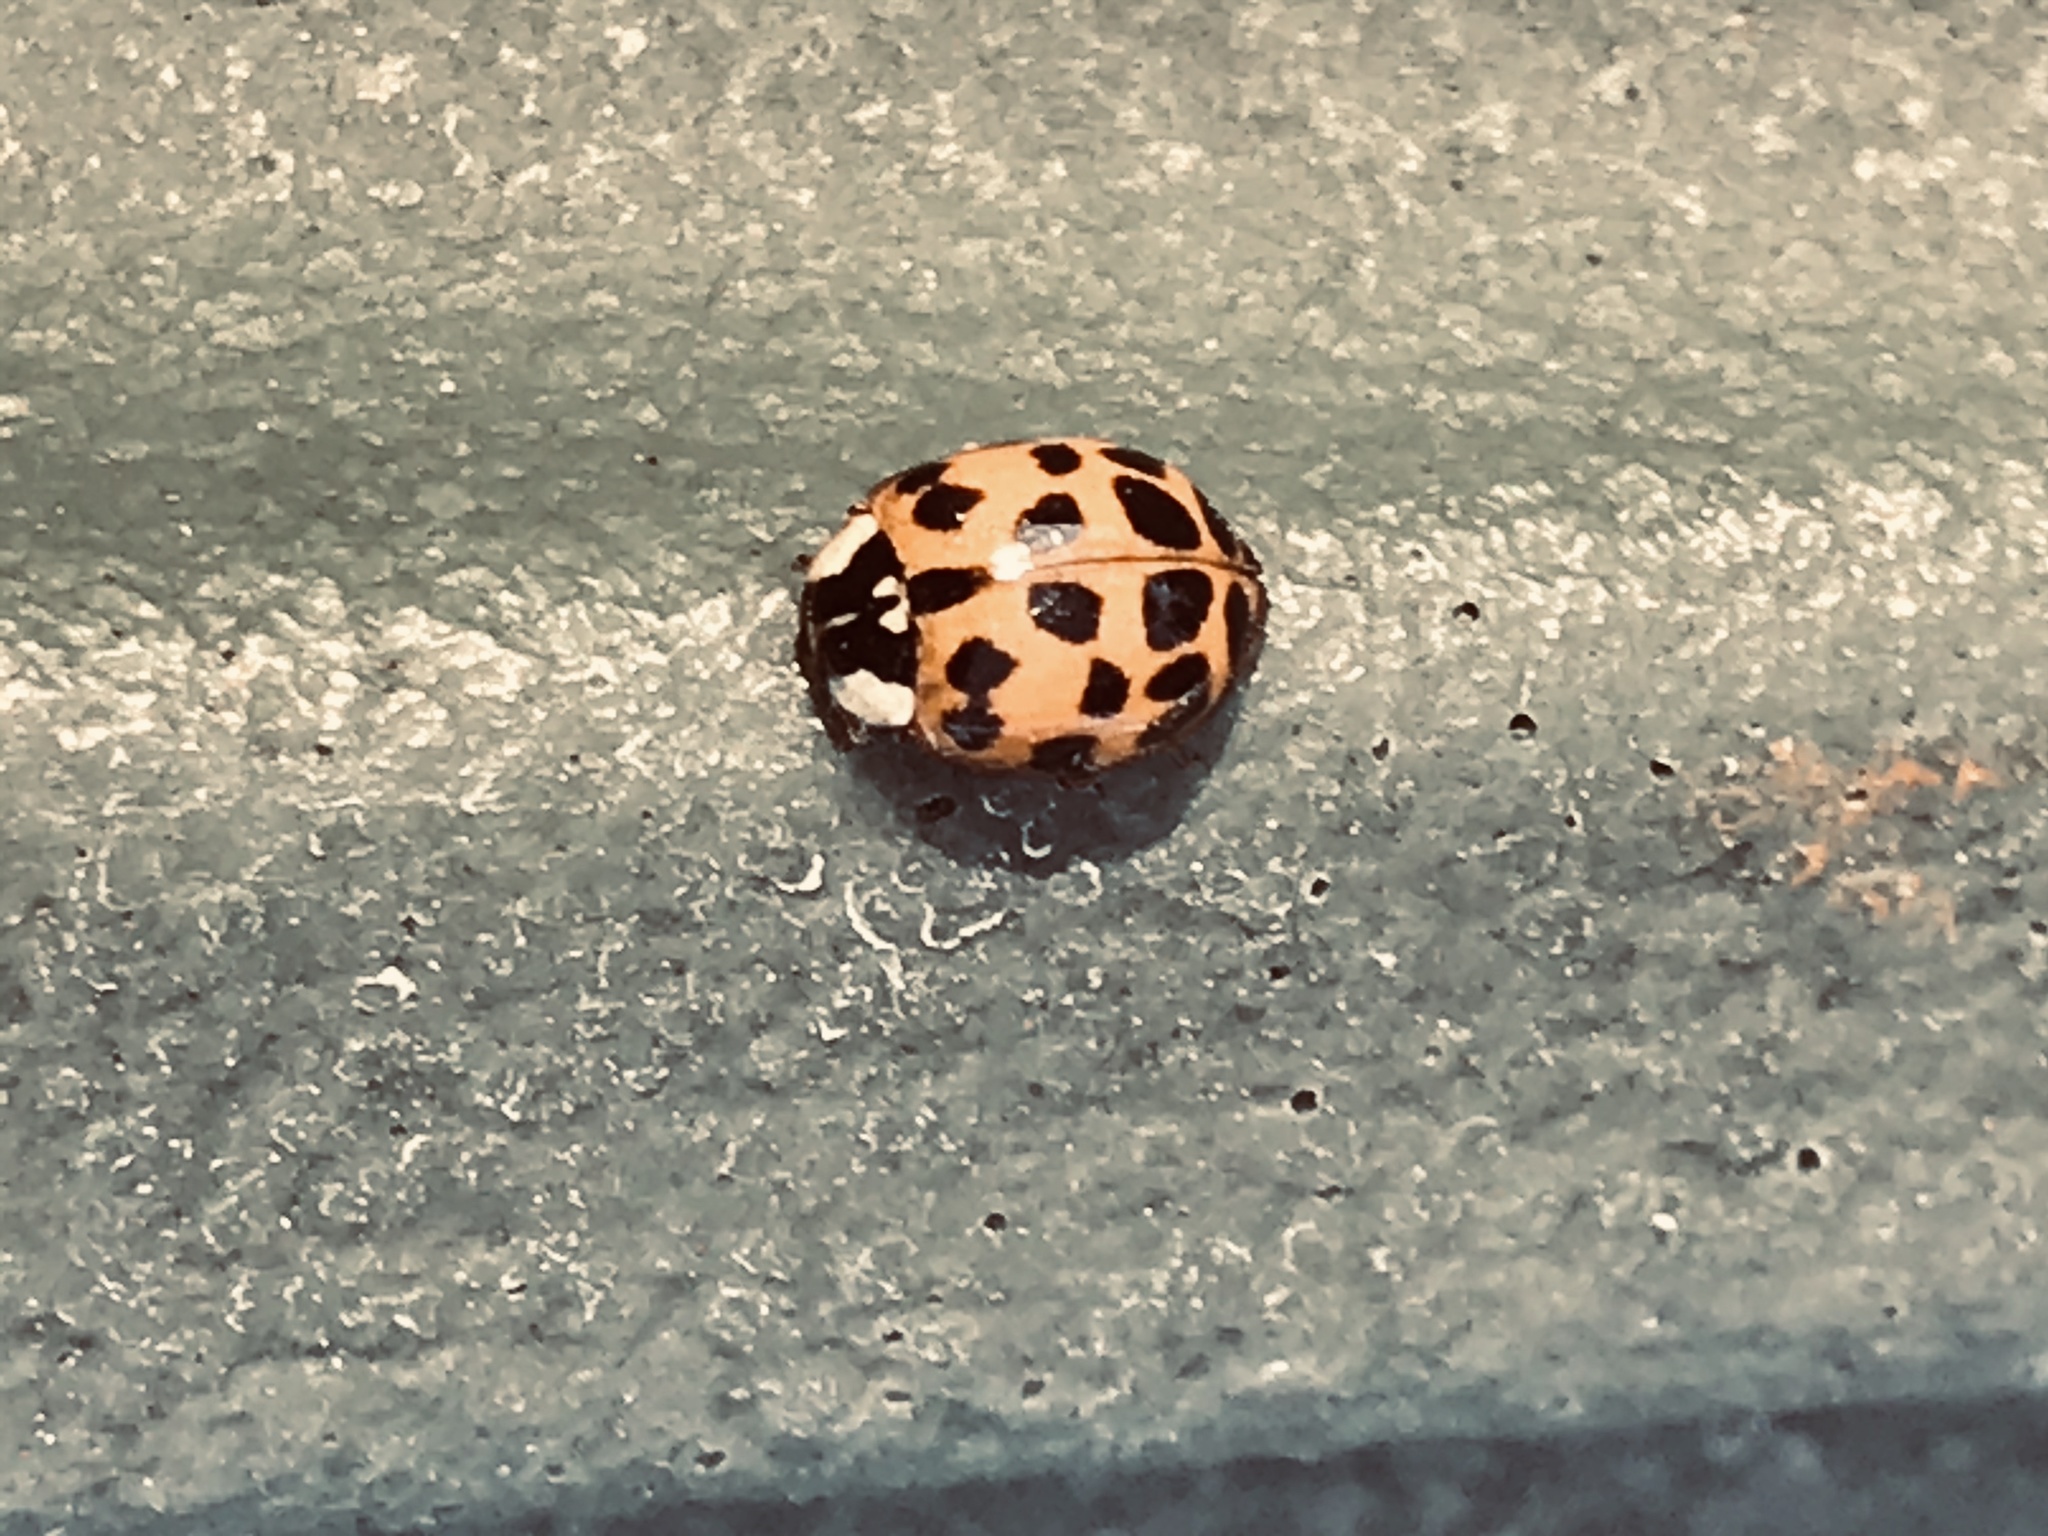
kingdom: Animalia
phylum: Arthropoda
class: Insecta
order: Coleoptera
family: Coccinellidae
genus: Harmonia
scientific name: Harmonia axyridis
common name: Harlequin ladybird
